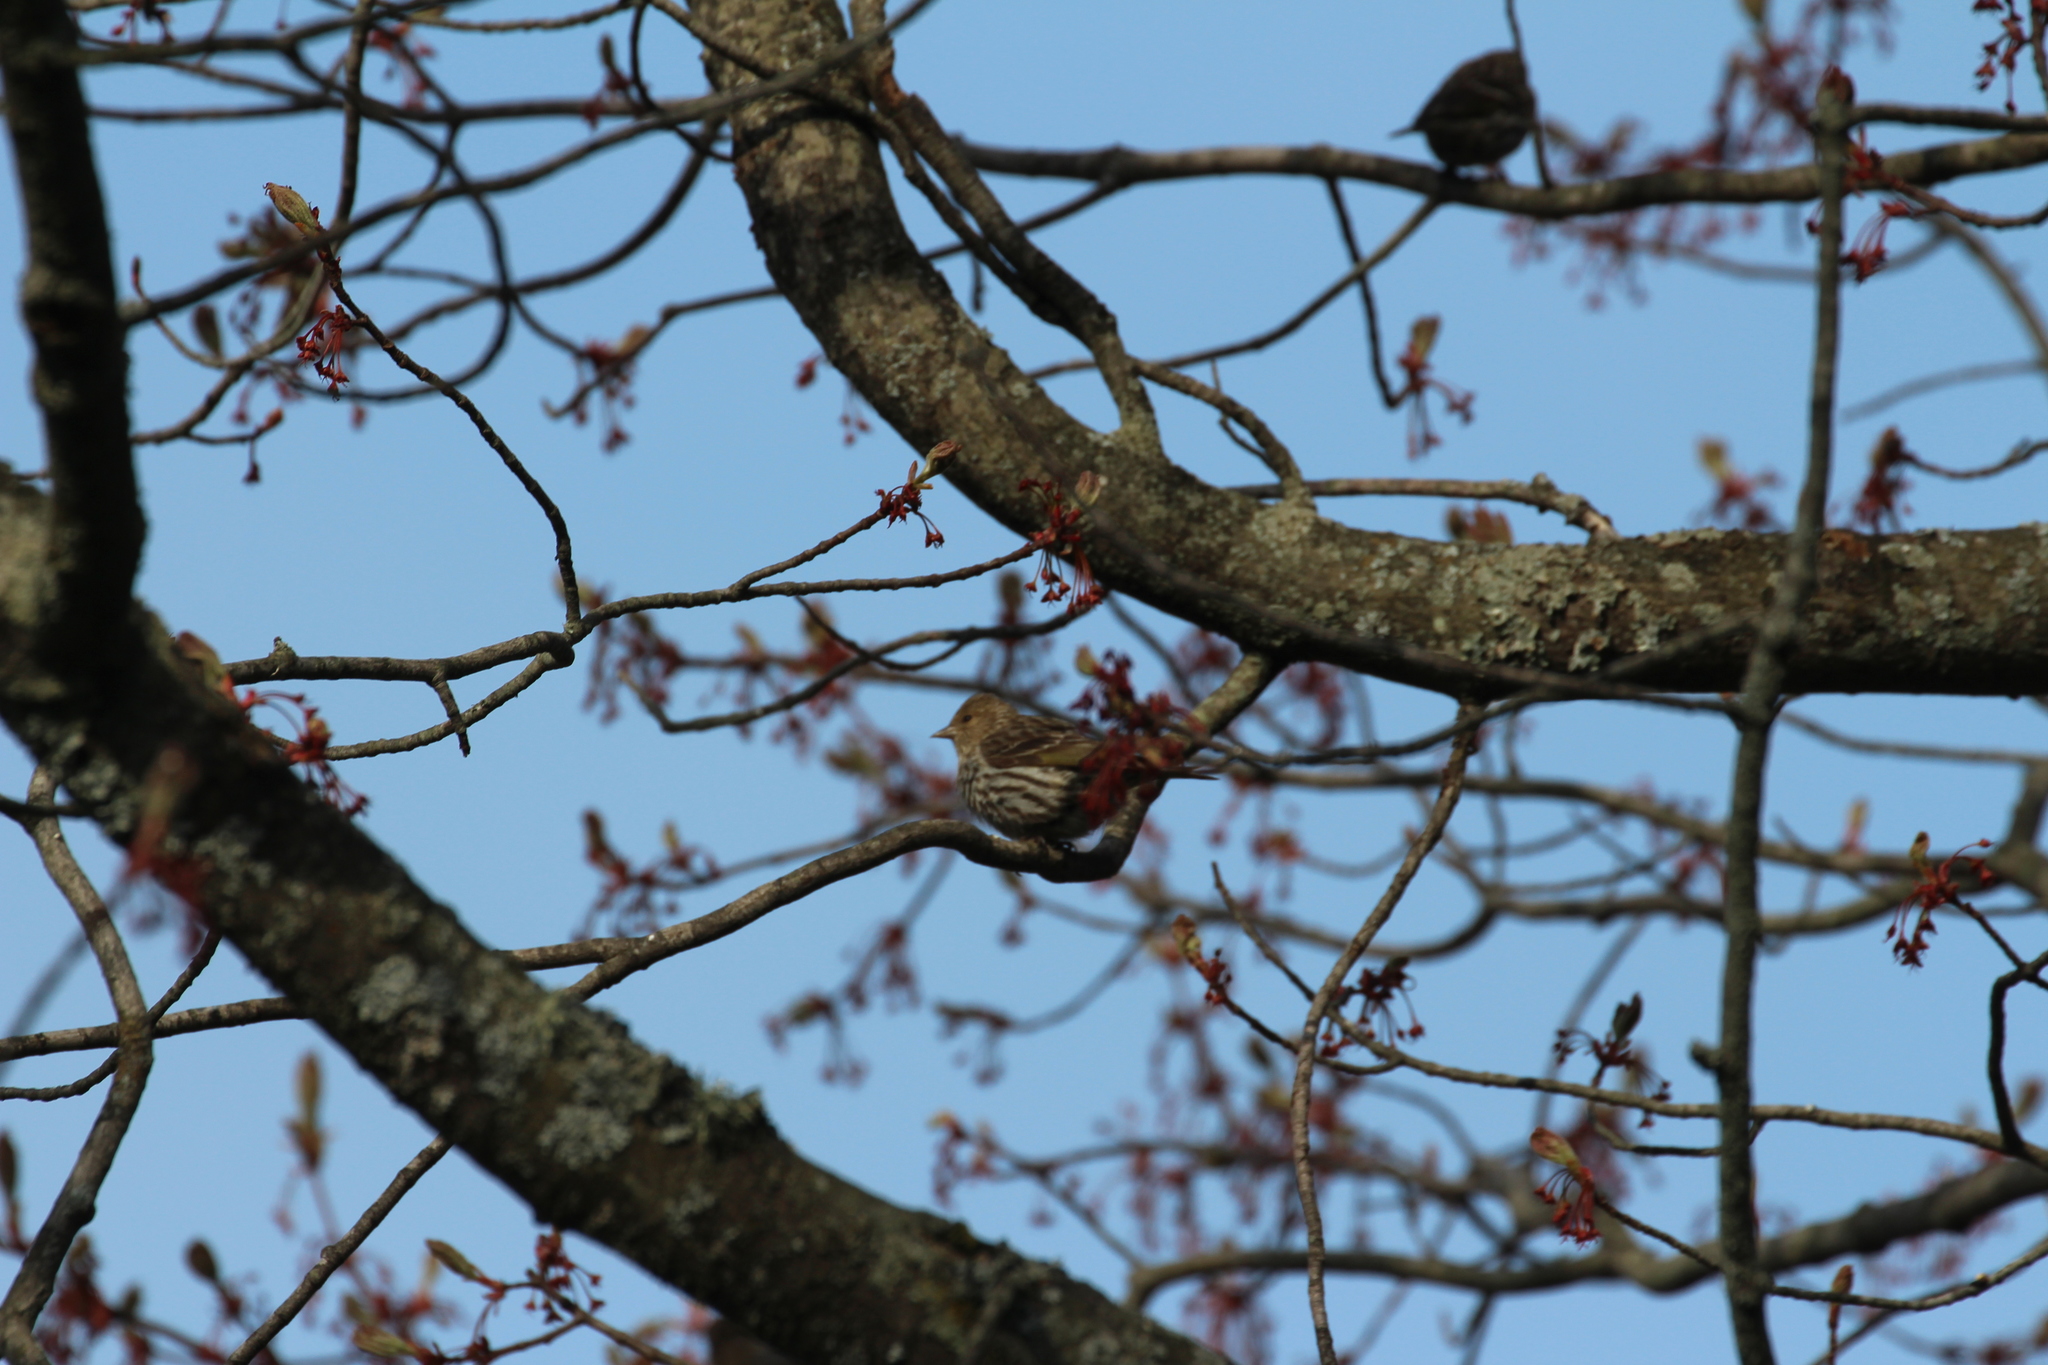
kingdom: Animalia
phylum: Chordata
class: Aves
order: Passeriformes
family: Fringillidae
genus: Spinus
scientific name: Spinus pinus
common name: Pine siskin
